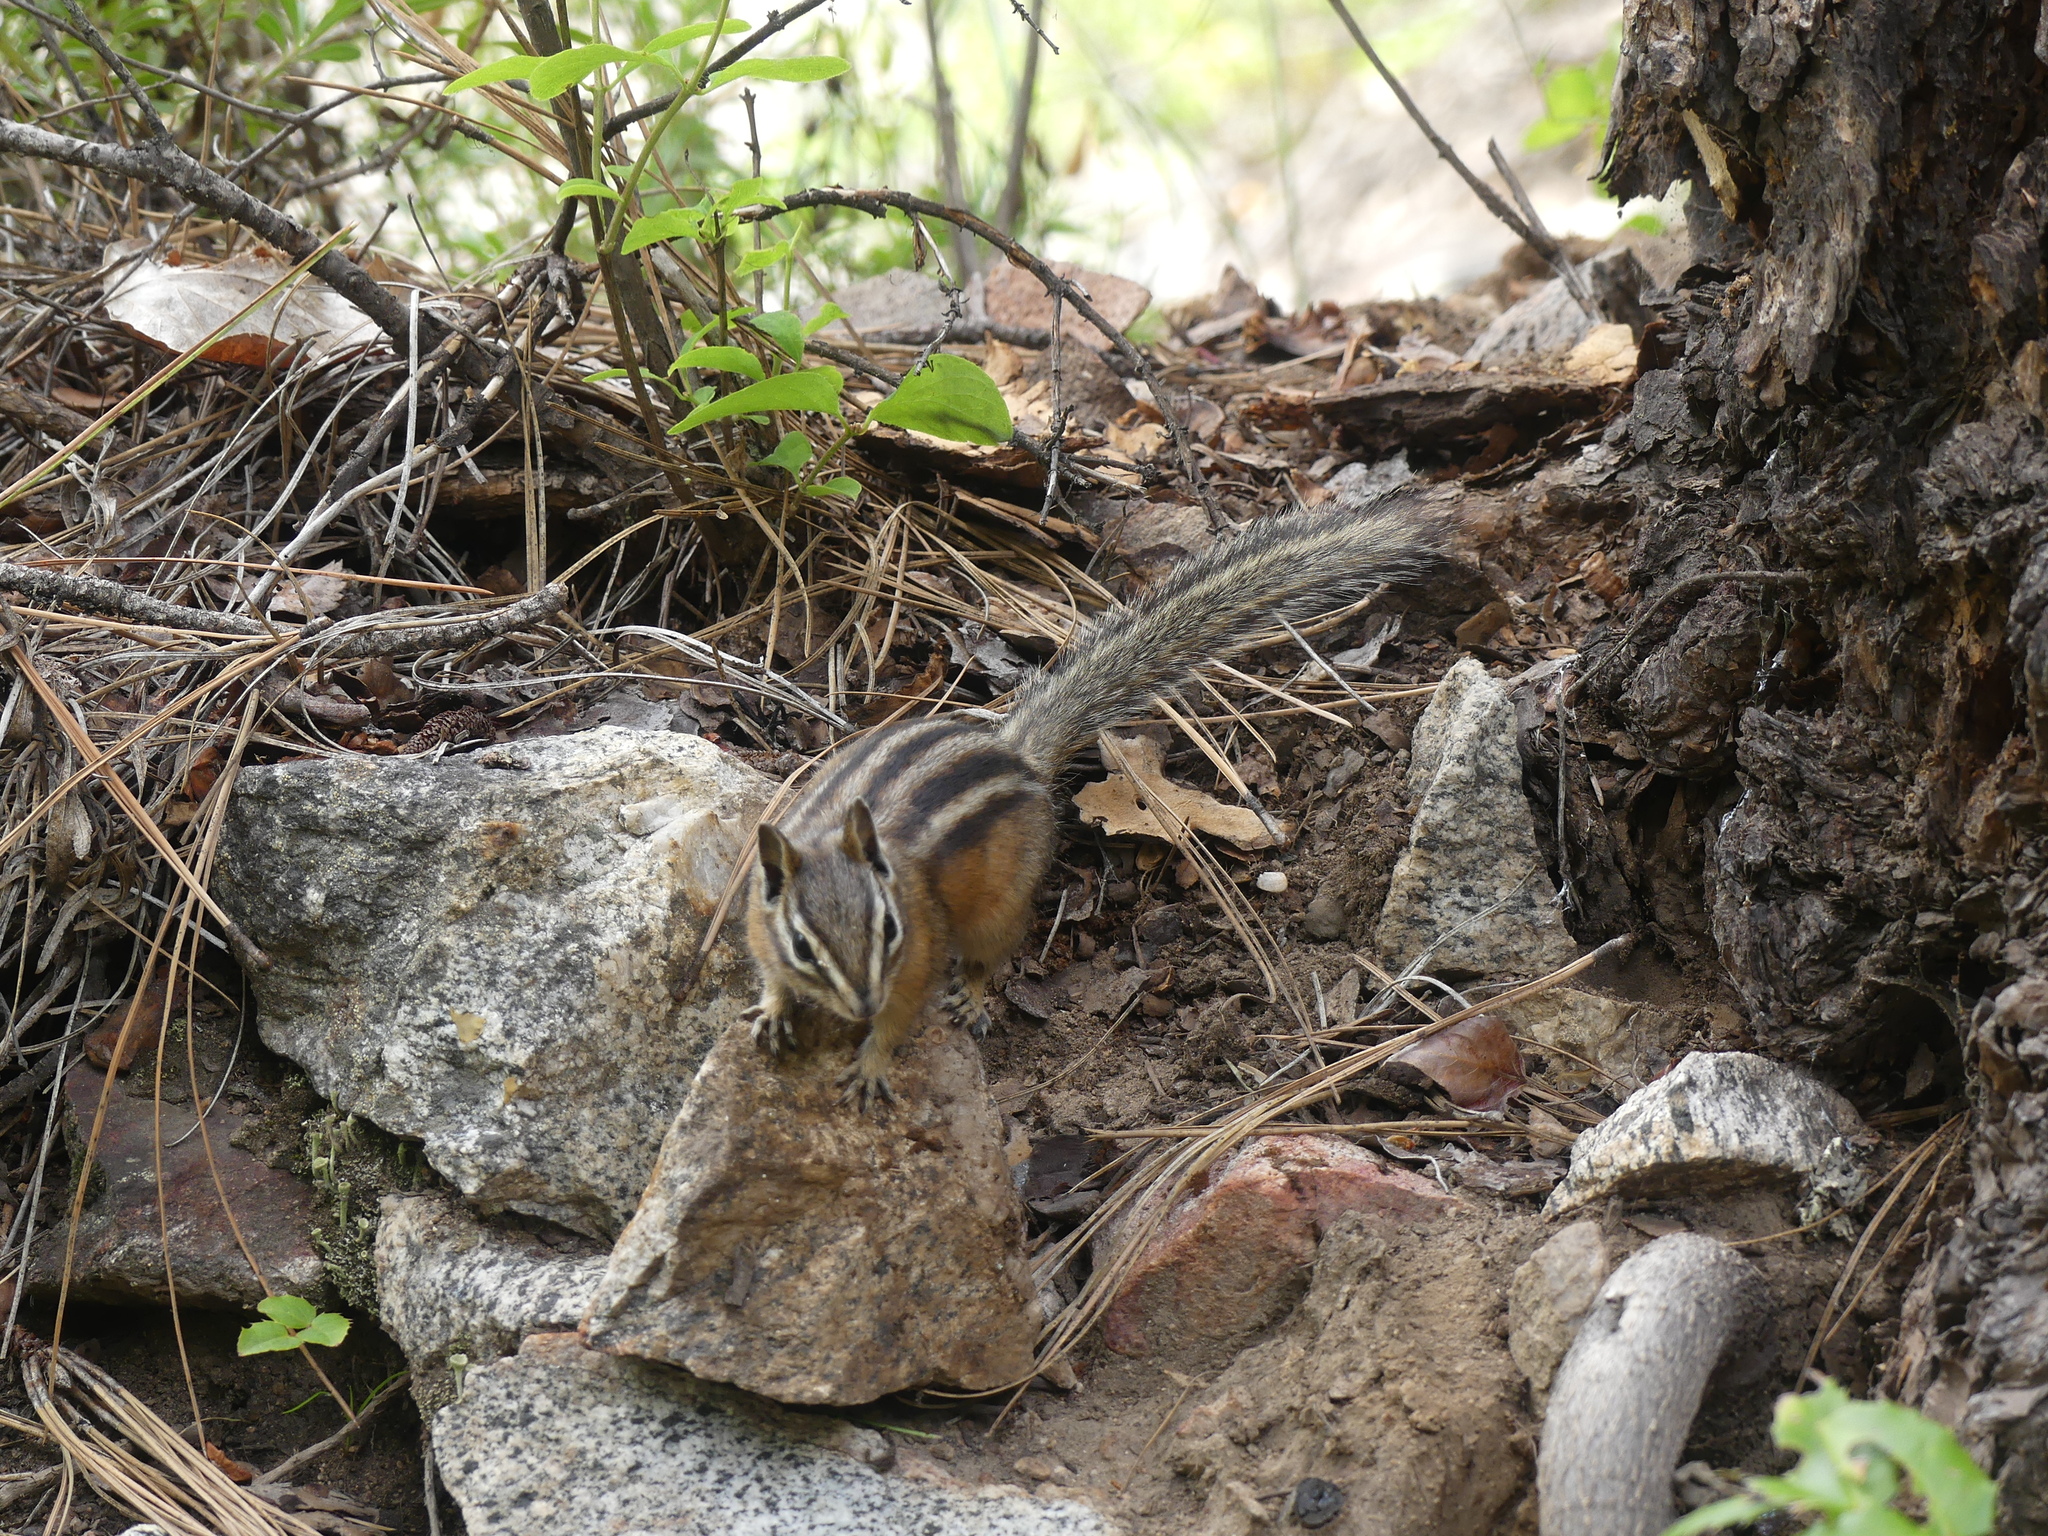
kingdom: Animalia
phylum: Chordata
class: Mammalia
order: Rodentia
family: Sciuridae
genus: Tamias
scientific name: Tamias amoenus
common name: Yellow-pine chipmunk
